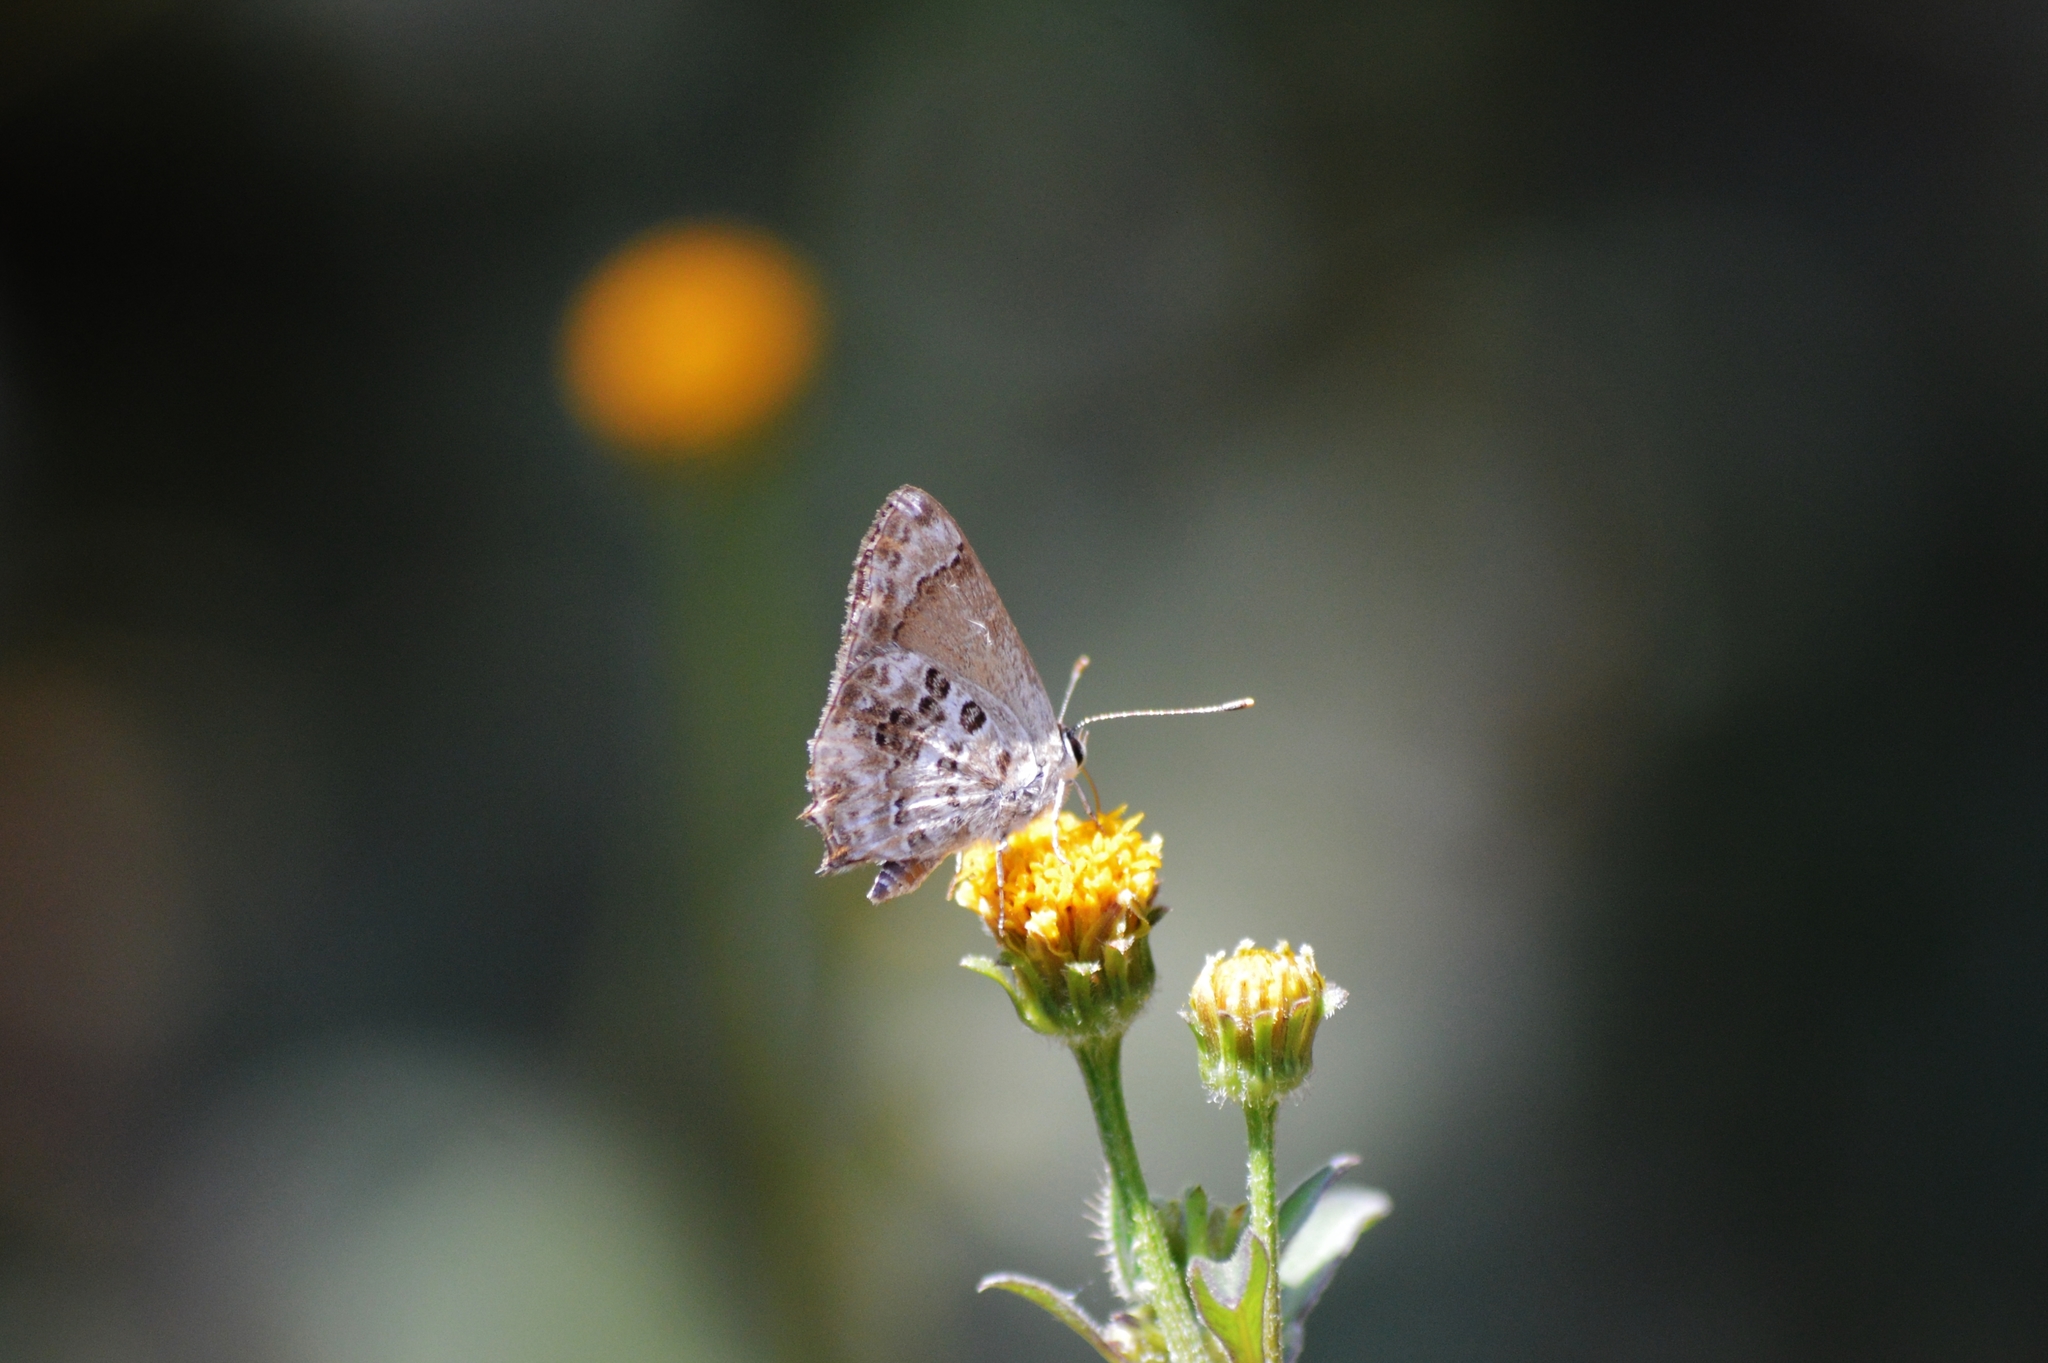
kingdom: Animalia
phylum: Arthropoda
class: Insecta
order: Lepidoptera
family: Lycaenidae
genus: Strymon
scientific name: Strymon astiocha
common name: Gray-spotted scrub-hairstreak
